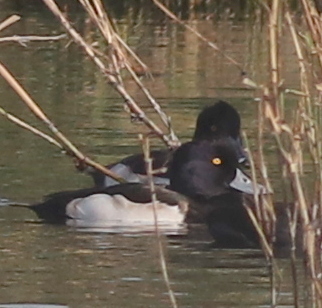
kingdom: Animalia
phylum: Chordata
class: Aves
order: Anseriformes
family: Anatidae
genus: Aythya
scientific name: Aythya fuligula
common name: Tufted duck
